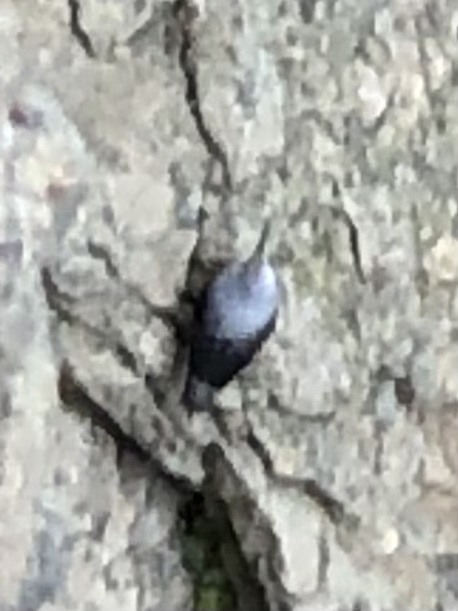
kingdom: Animalia
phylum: Chordata
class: Aves
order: Passeriformes
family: Tichodromidae
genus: Tichodroma
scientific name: Tichodroma muraria
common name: Wallcreeper
